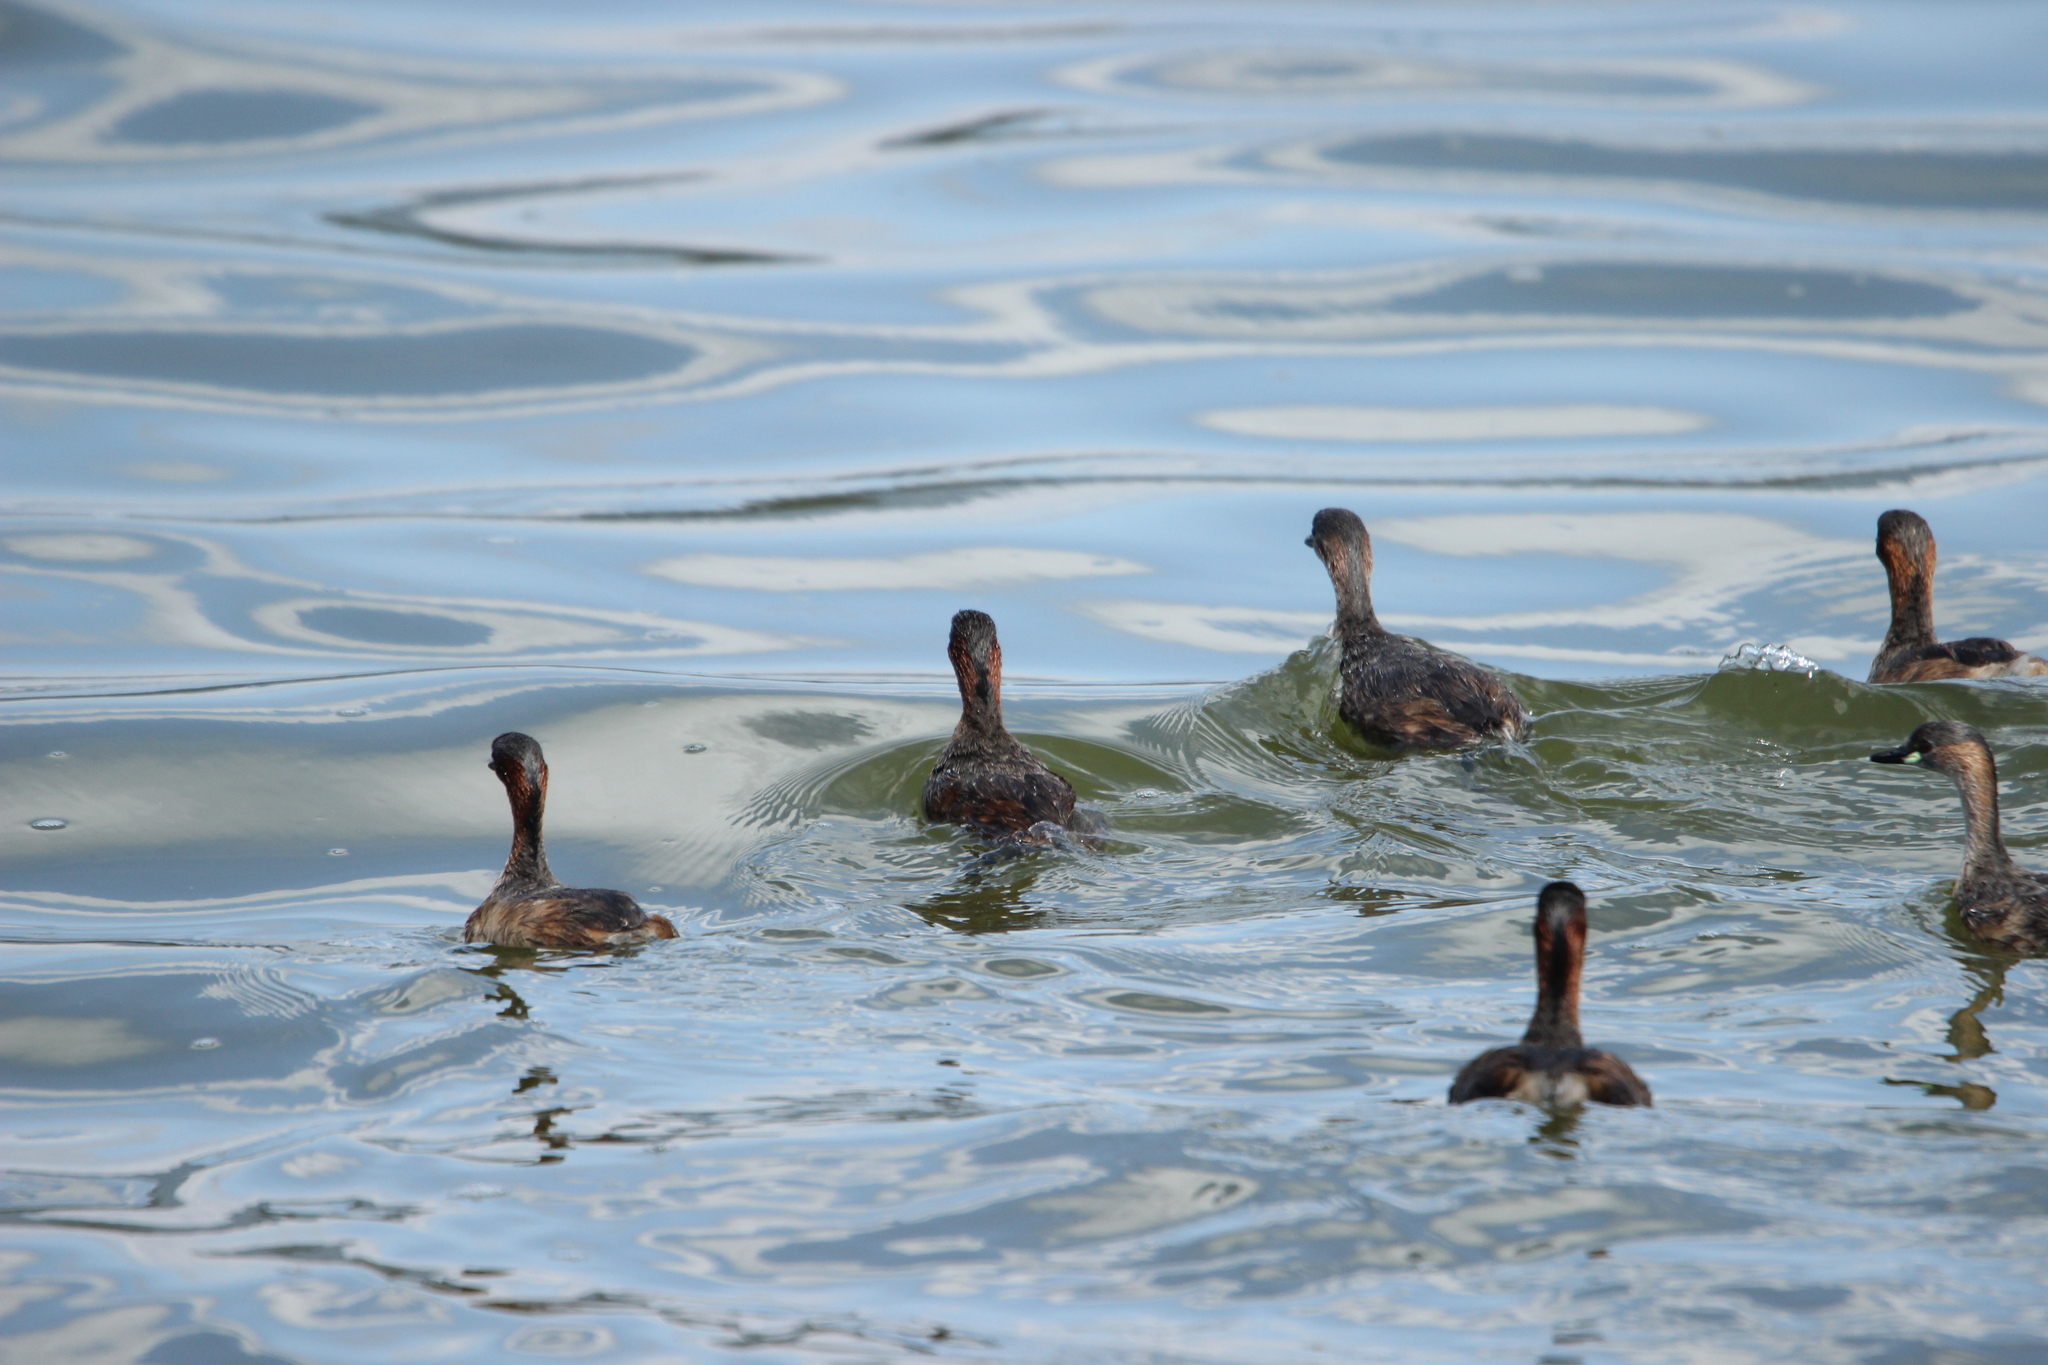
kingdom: Animalia
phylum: Chordata
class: Aves
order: Podicipediformes
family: Podicipedidae
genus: Tachybaptus
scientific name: Tachybaptus ruficollis
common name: Little grebe
